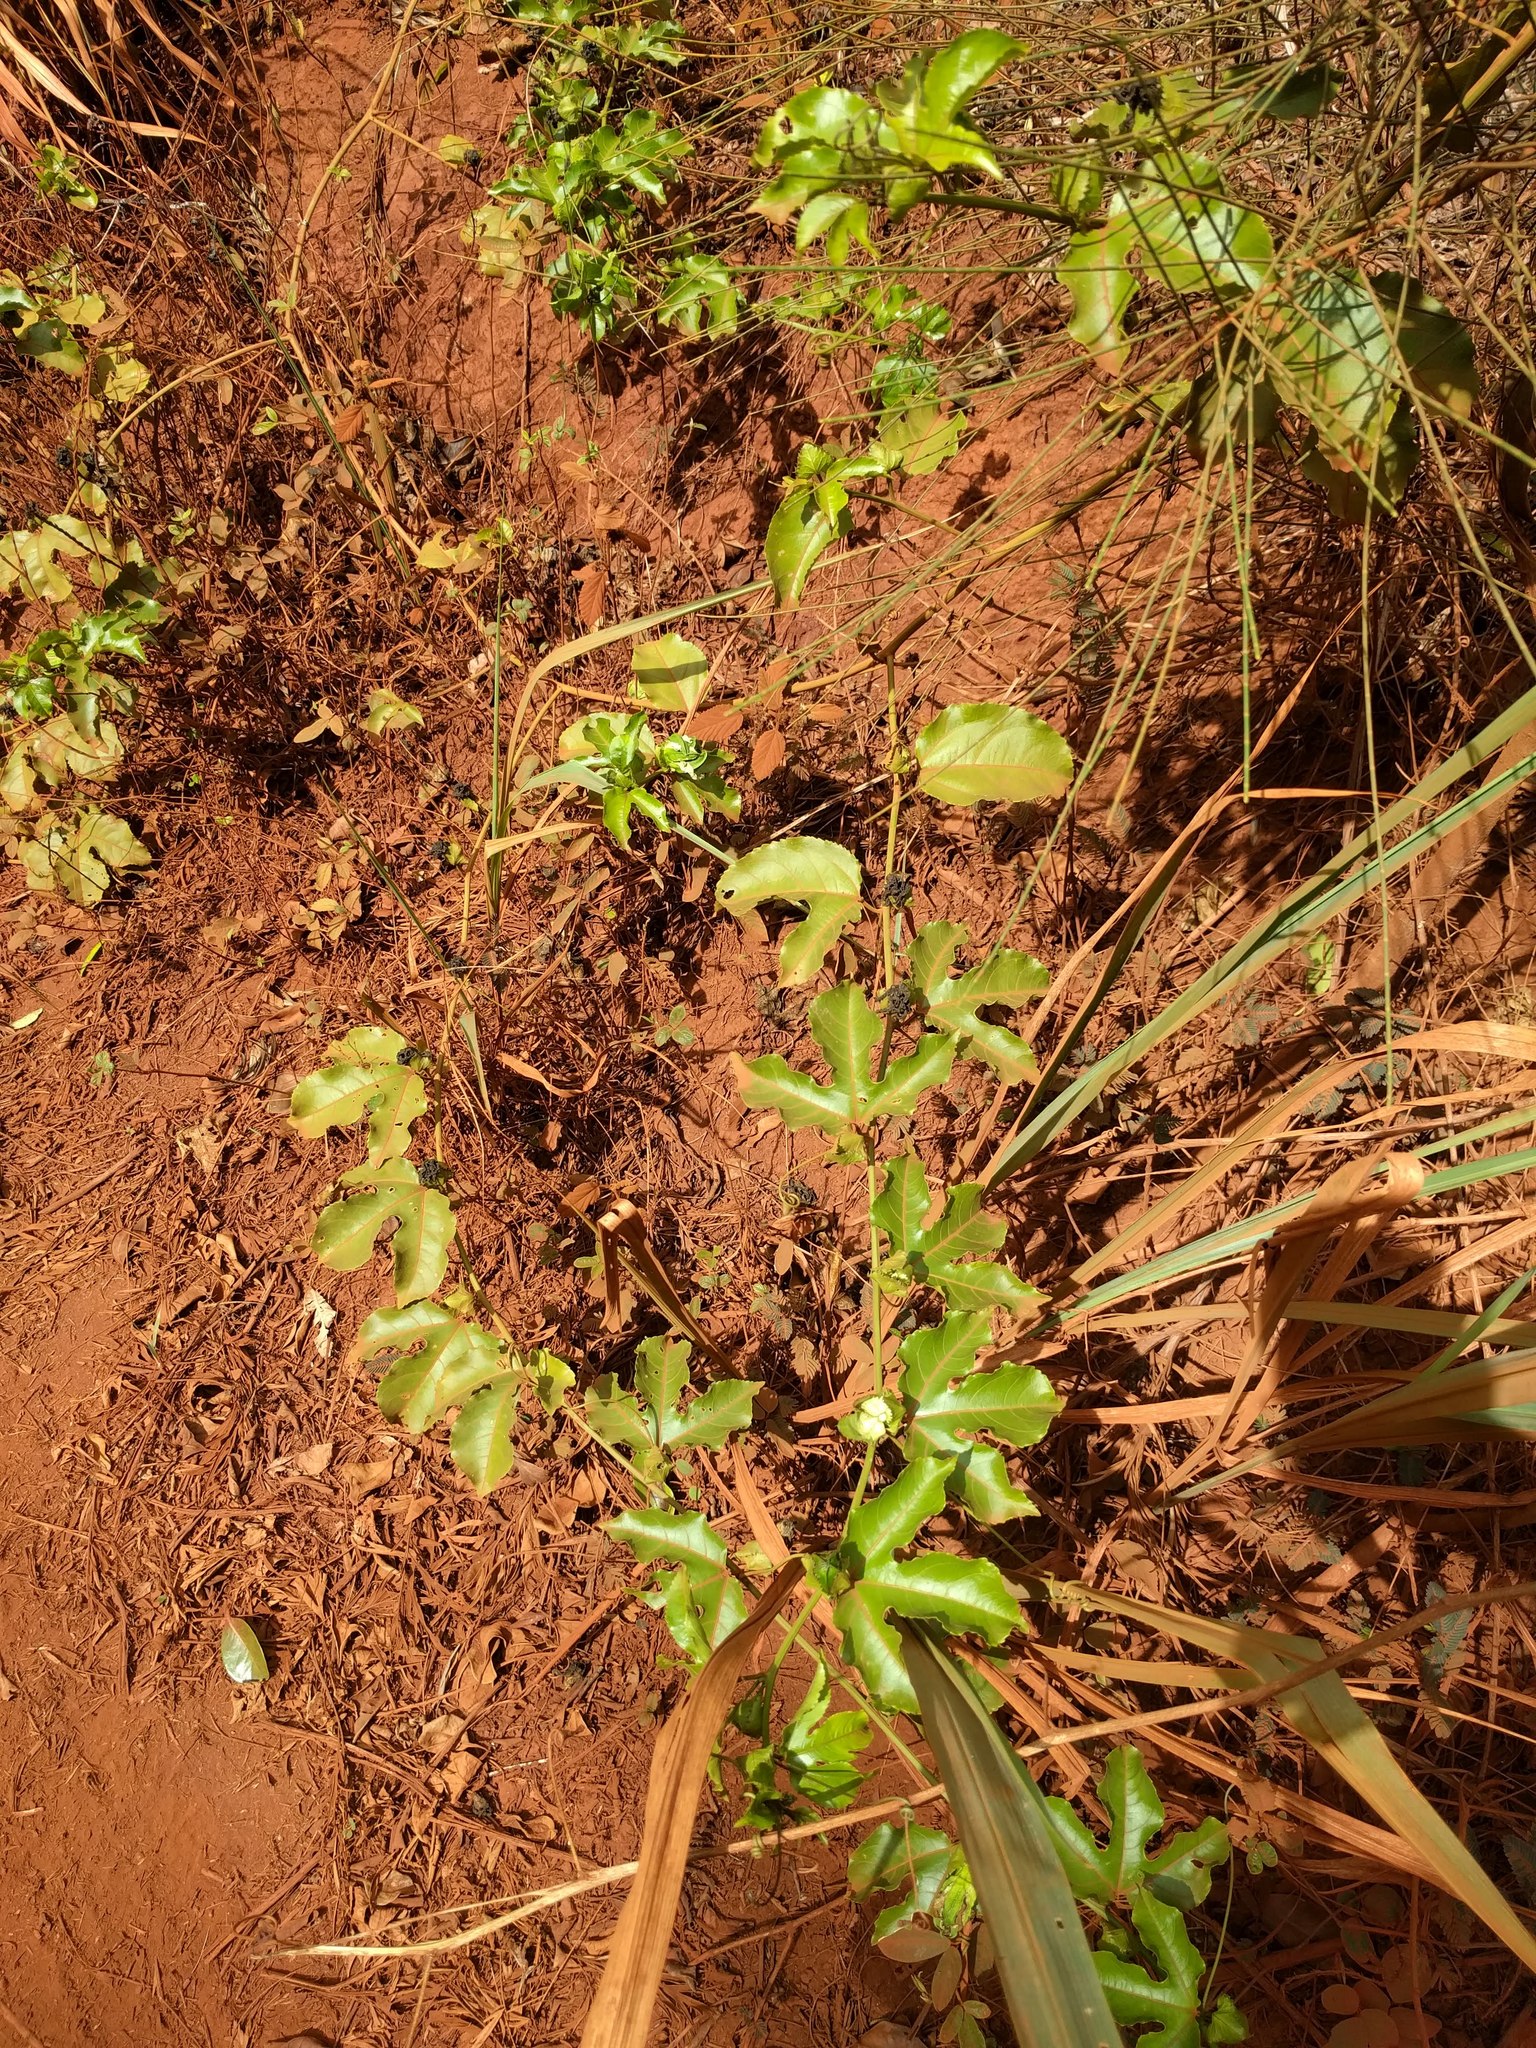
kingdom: Plantae
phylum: Tracheophyta
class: Magnoliopsida
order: Malpighiales
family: Passifloraceae
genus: Passiflora
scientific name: Passiflora edulis
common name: Purple granadilla
